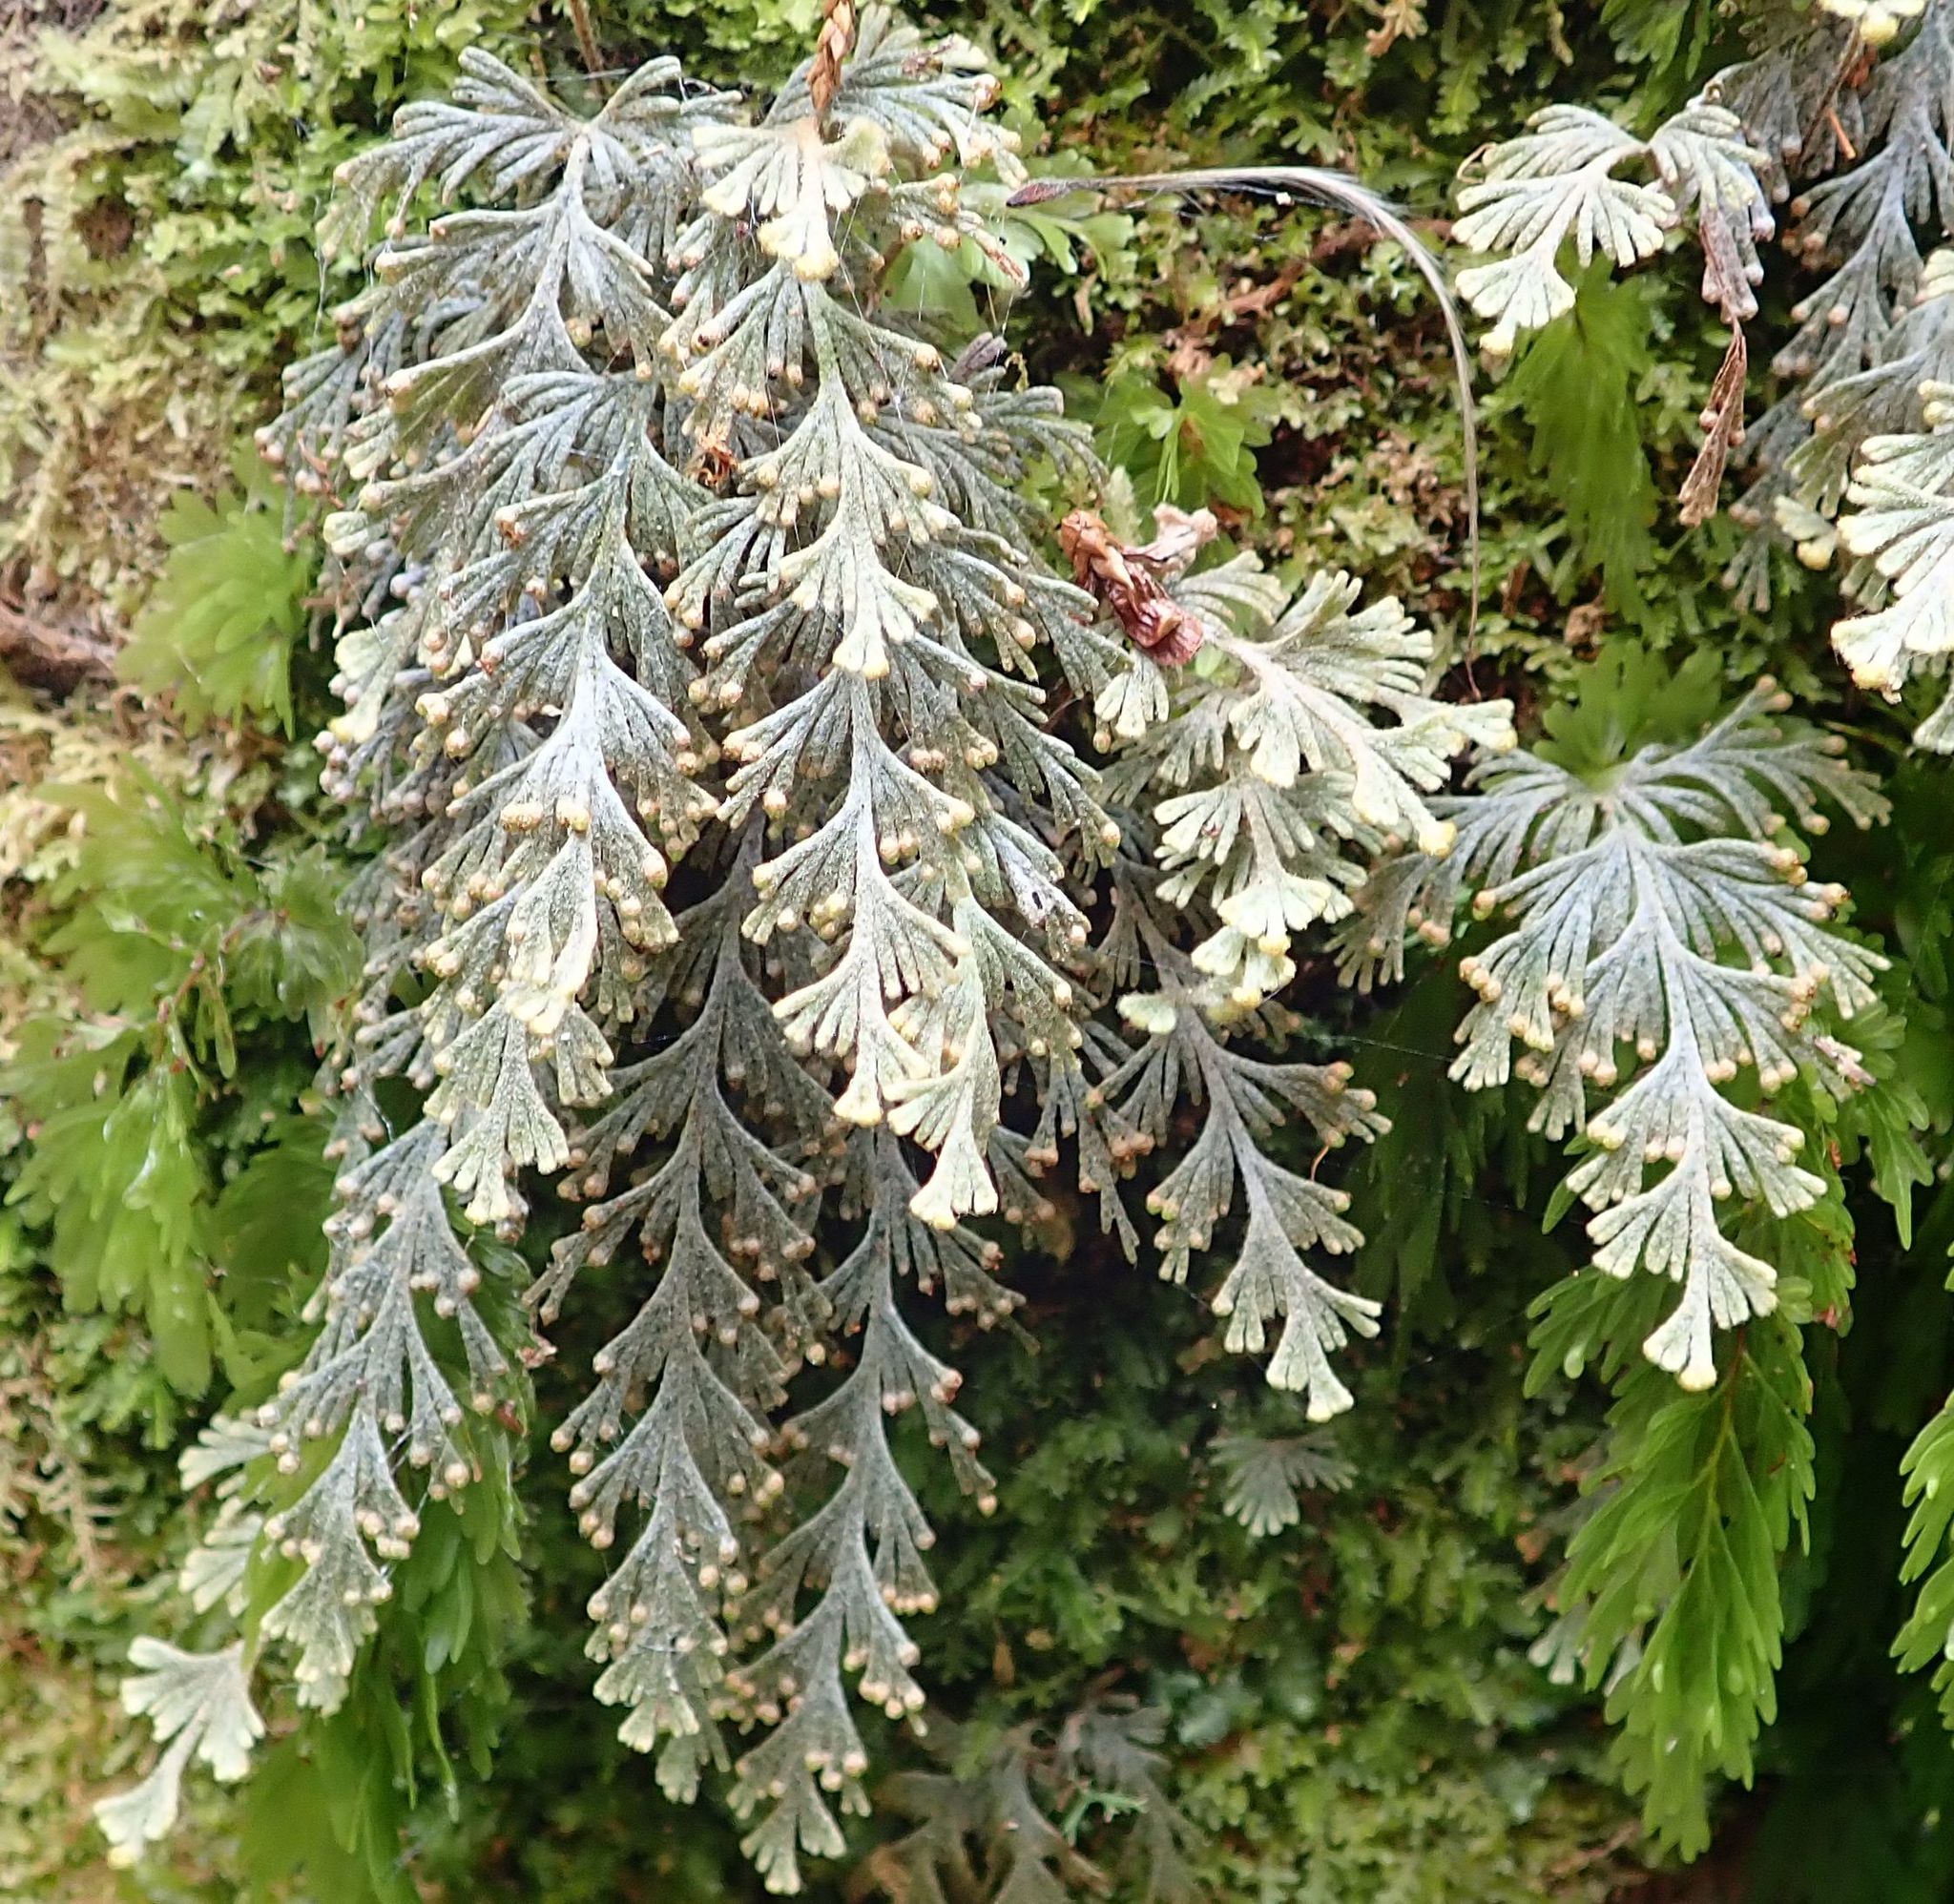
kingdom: Plantae
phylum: Tracheophyta
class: Polypodiopsida
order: Hymenophyllales
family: Hymenophyllaceae
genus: Hymenophyllum
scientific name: Hymenophyllum malingii
